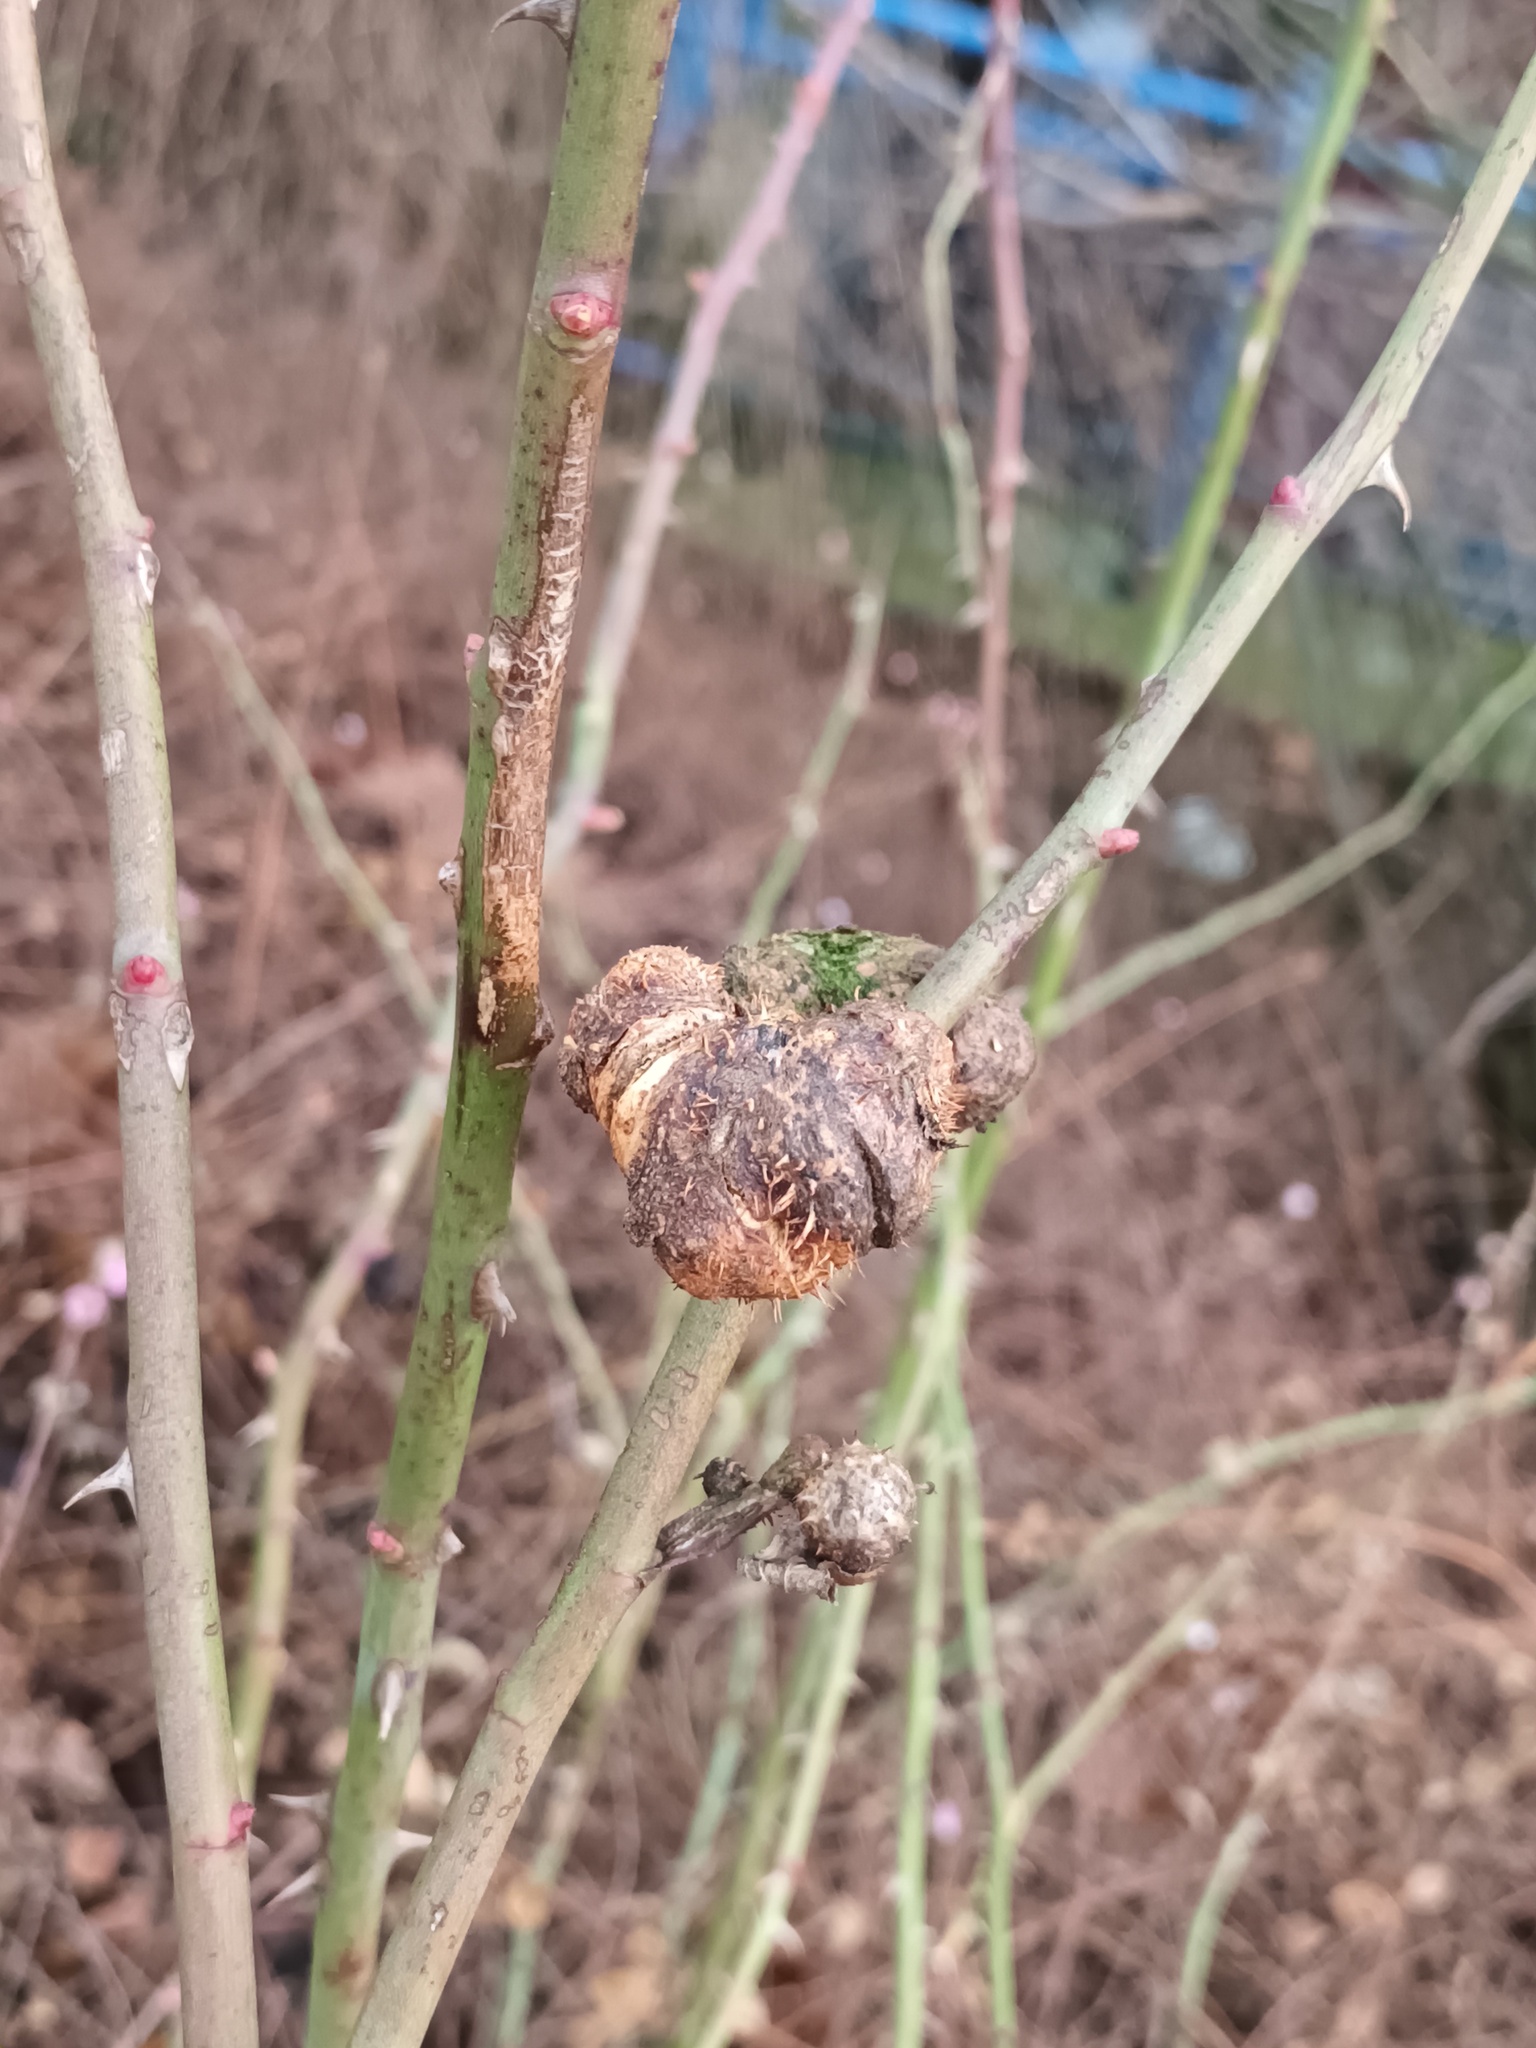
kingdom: Animalia
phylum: Arthropoda
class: Insecta
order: Hymenoptera
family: Cynipidae
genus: Diplolepis
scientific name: Diplolepis mayri
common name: Gall wasp
